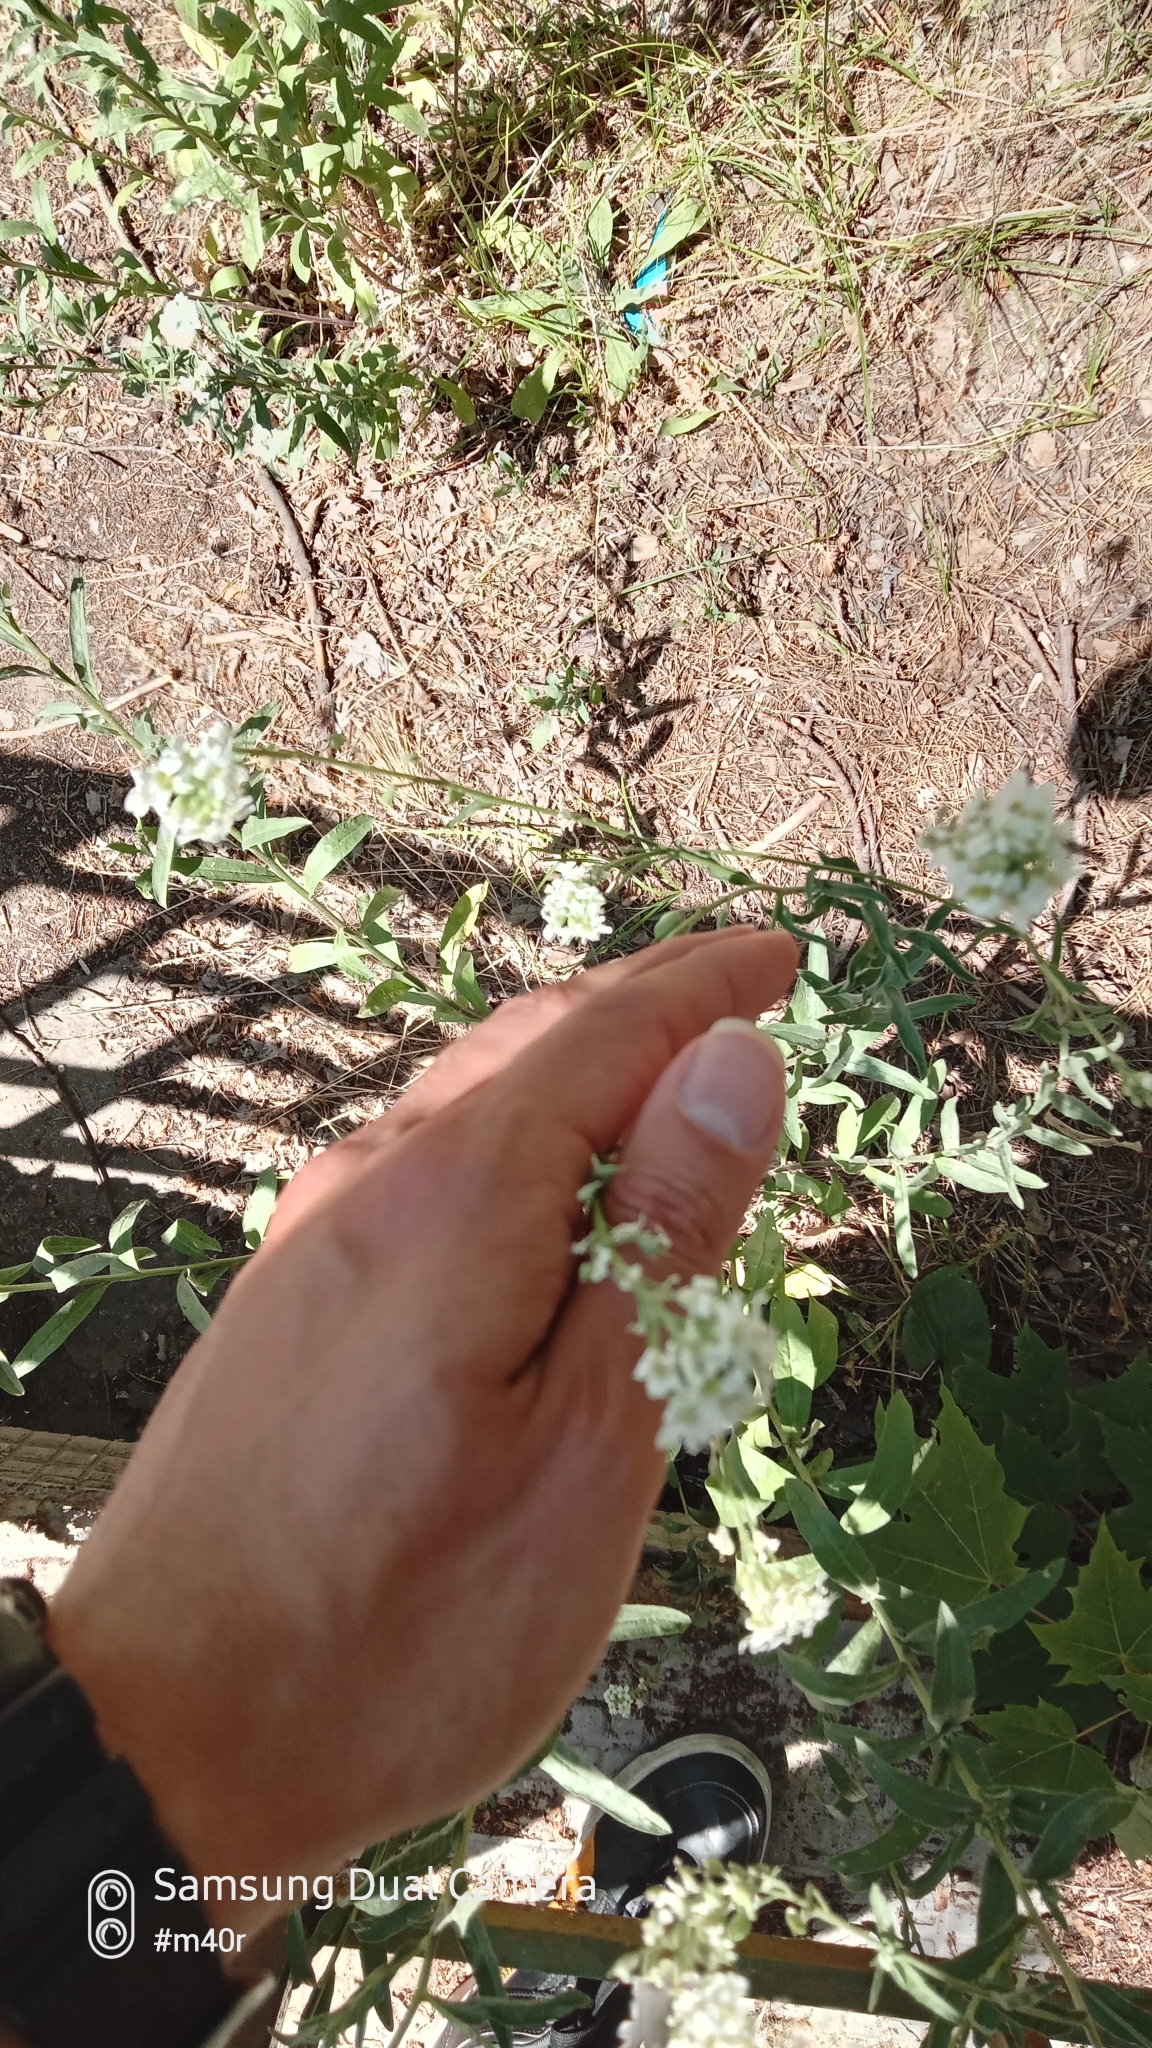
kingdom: Plantae
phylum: Tracheophyta
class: Magnoliopsida
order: Brassicales
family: Brassicaceae
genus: Berteroa
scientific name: Berteroa incana
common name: Hoary alison
